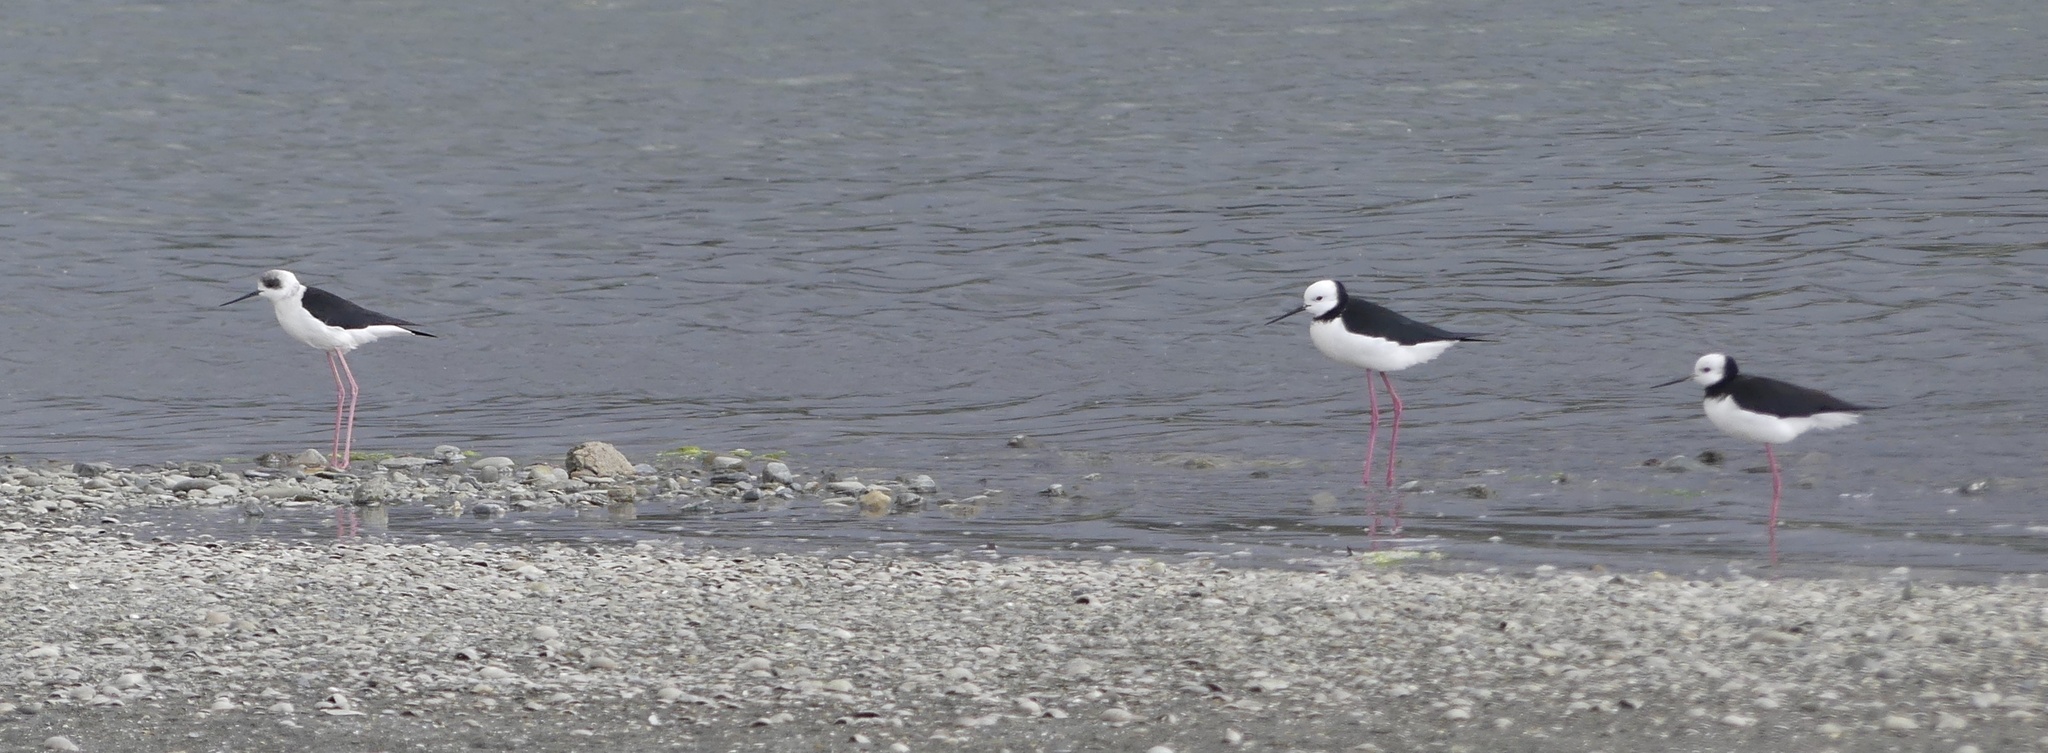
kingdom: Animalia
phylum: Chordata
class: Aves
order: Charadriiformes
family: Recurvirostridae
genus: Himantopus
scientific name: Himantopus leucocephalus
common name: White-headed stilt
